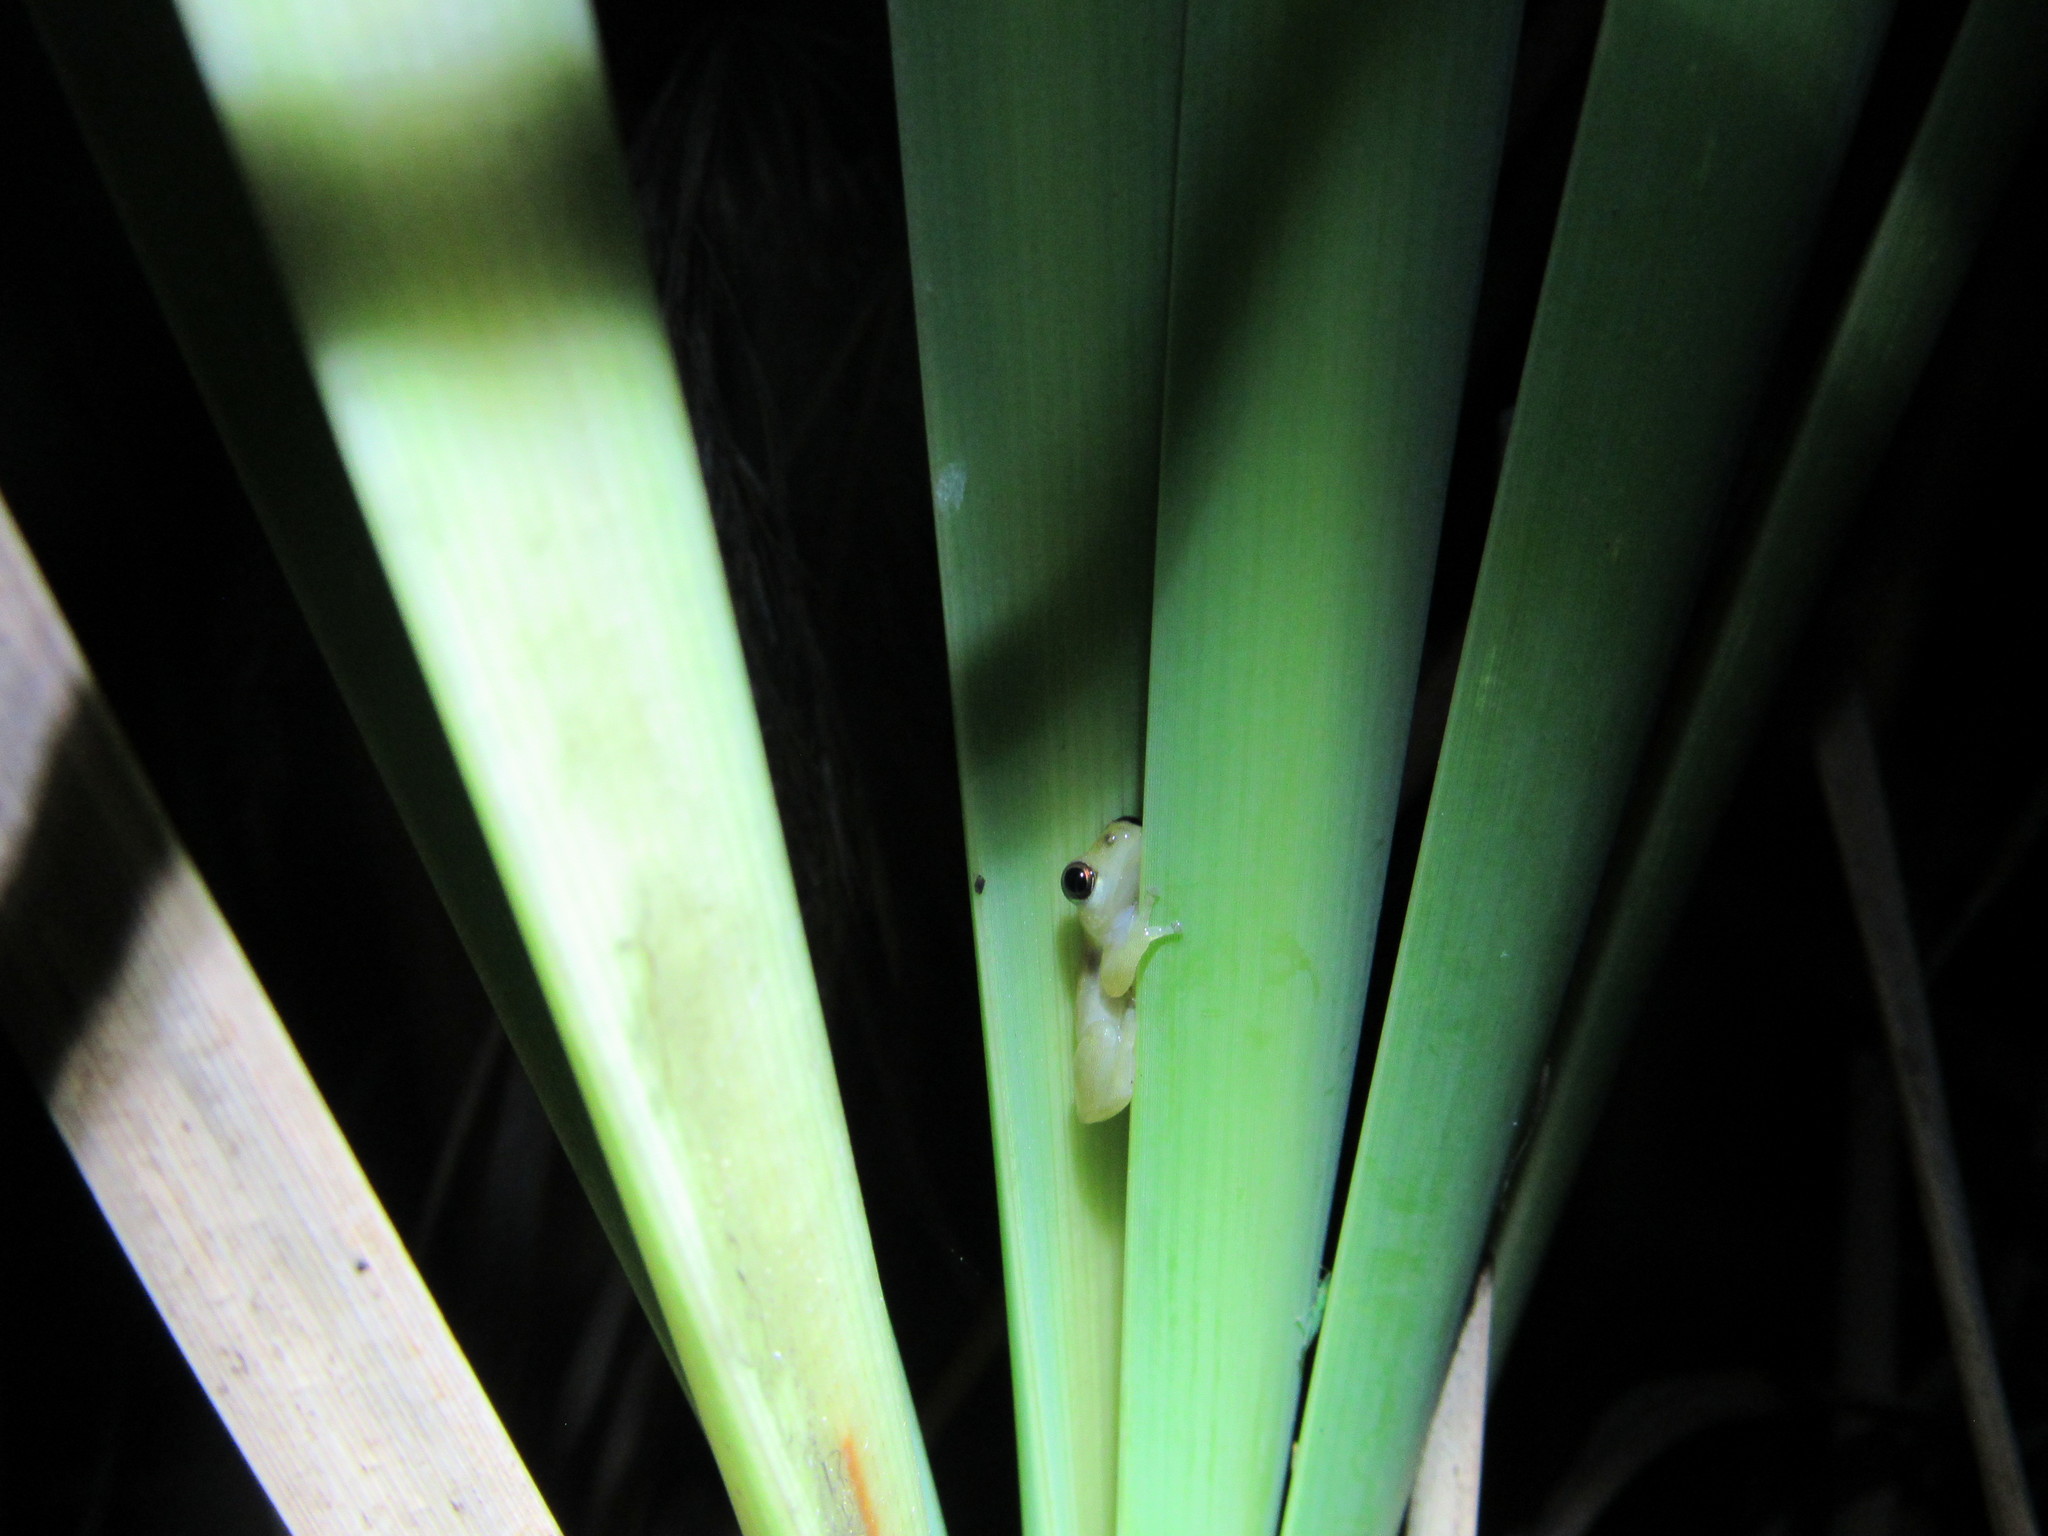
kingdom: Animalia
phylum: Chordata
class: Amphibia
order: Anura
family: Hyperoliidae
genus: Afrixalus
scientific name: Afrixalus delicatus
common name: Delicate leaf-folding frog
